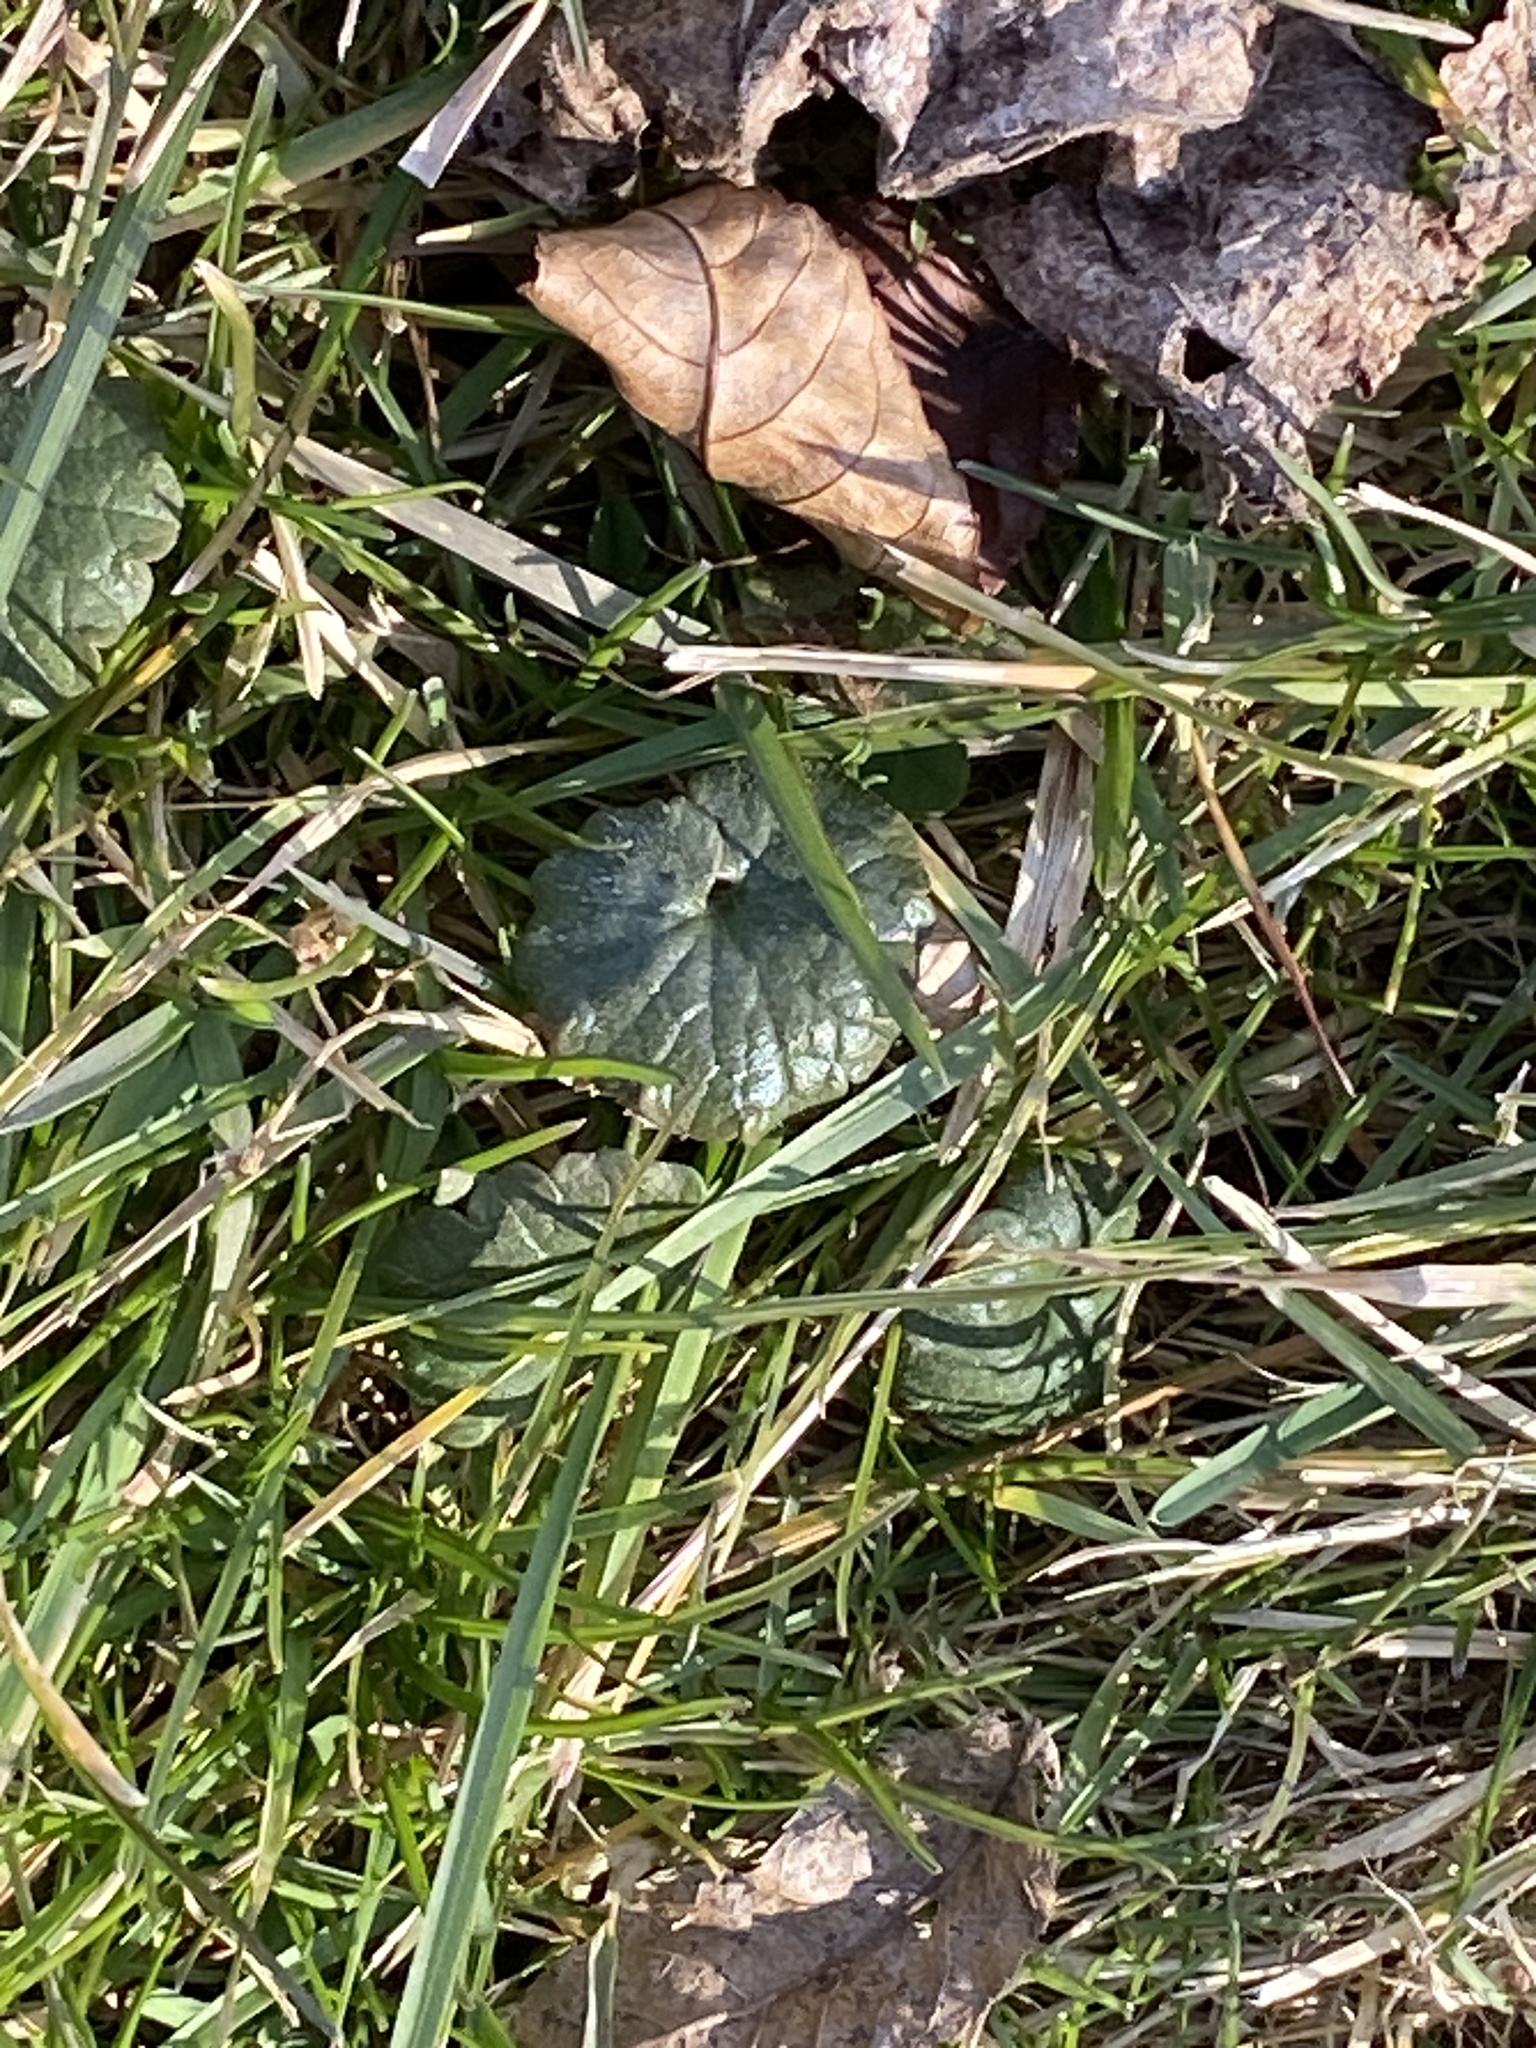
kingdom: Plantae
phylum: Tracheophyta
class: Magnoliopsida
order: Lamiales
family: Lamiaceae
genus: Glechoma
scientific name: Glechoma hederacea
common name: Ground ivy
